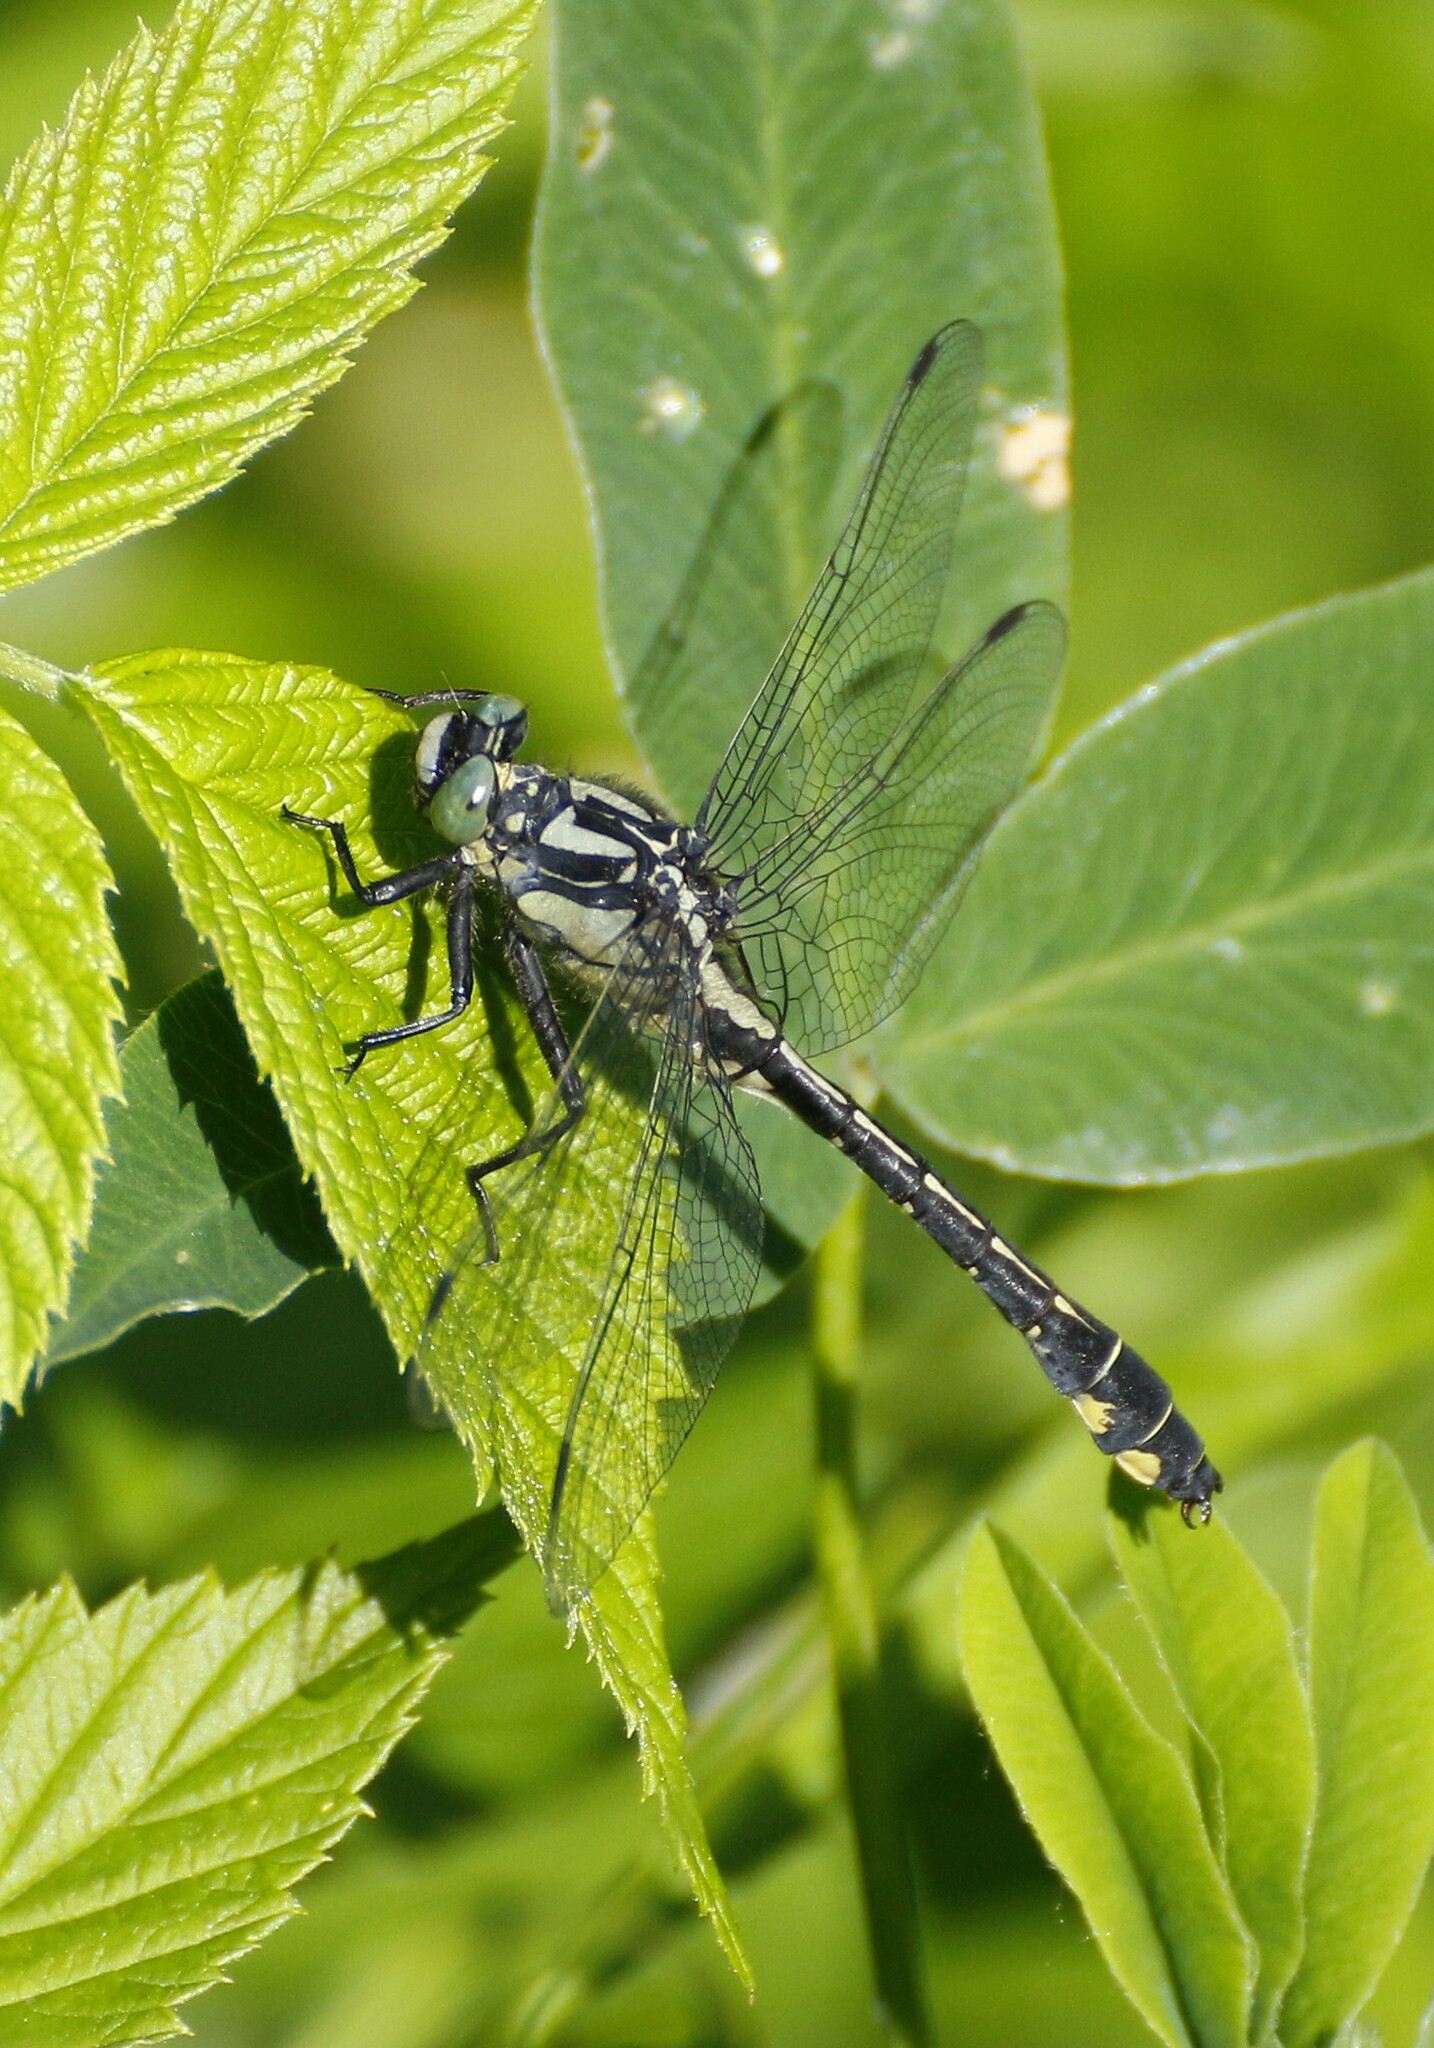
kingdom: Animalia
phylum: Arthropoda
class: Insecta
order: Odonata
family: Gomphidae
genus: Gomphus
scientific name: Gomphus vulgatissimus
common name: Club-tailed dragonfly
